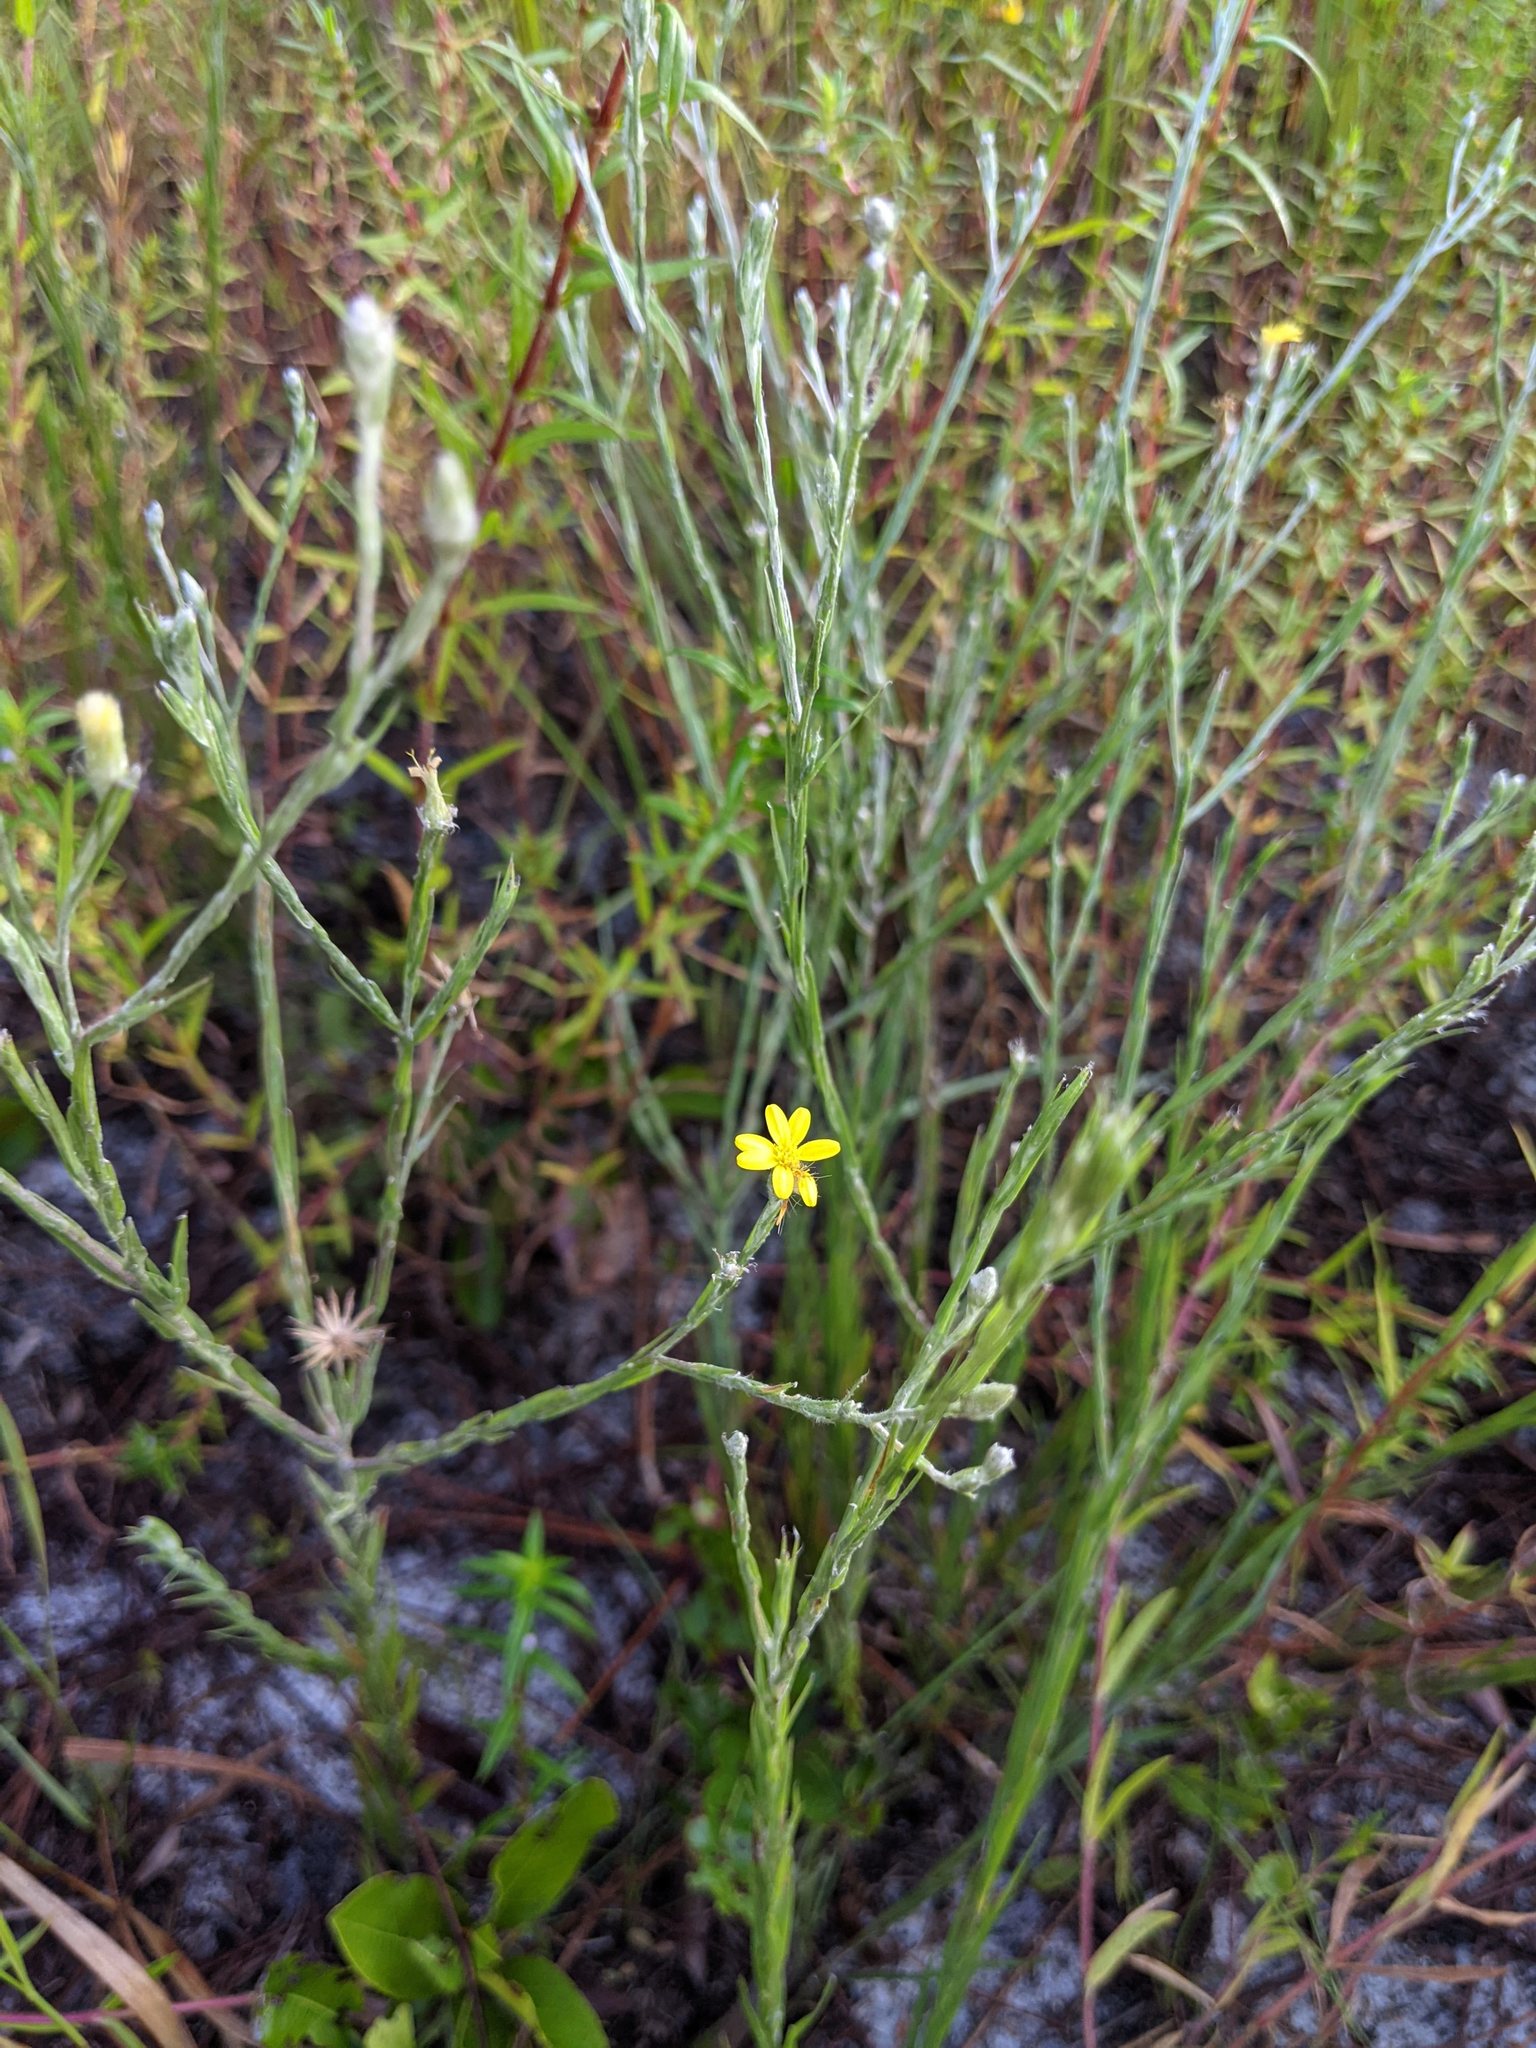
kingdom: Plantae
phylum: Tracheophyta
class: Magnoliopsida
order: Asterales
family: Asteraceae
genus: Pityopsis
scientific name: Pityopsis graminifolia
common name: Grass-leaf golden-aster
